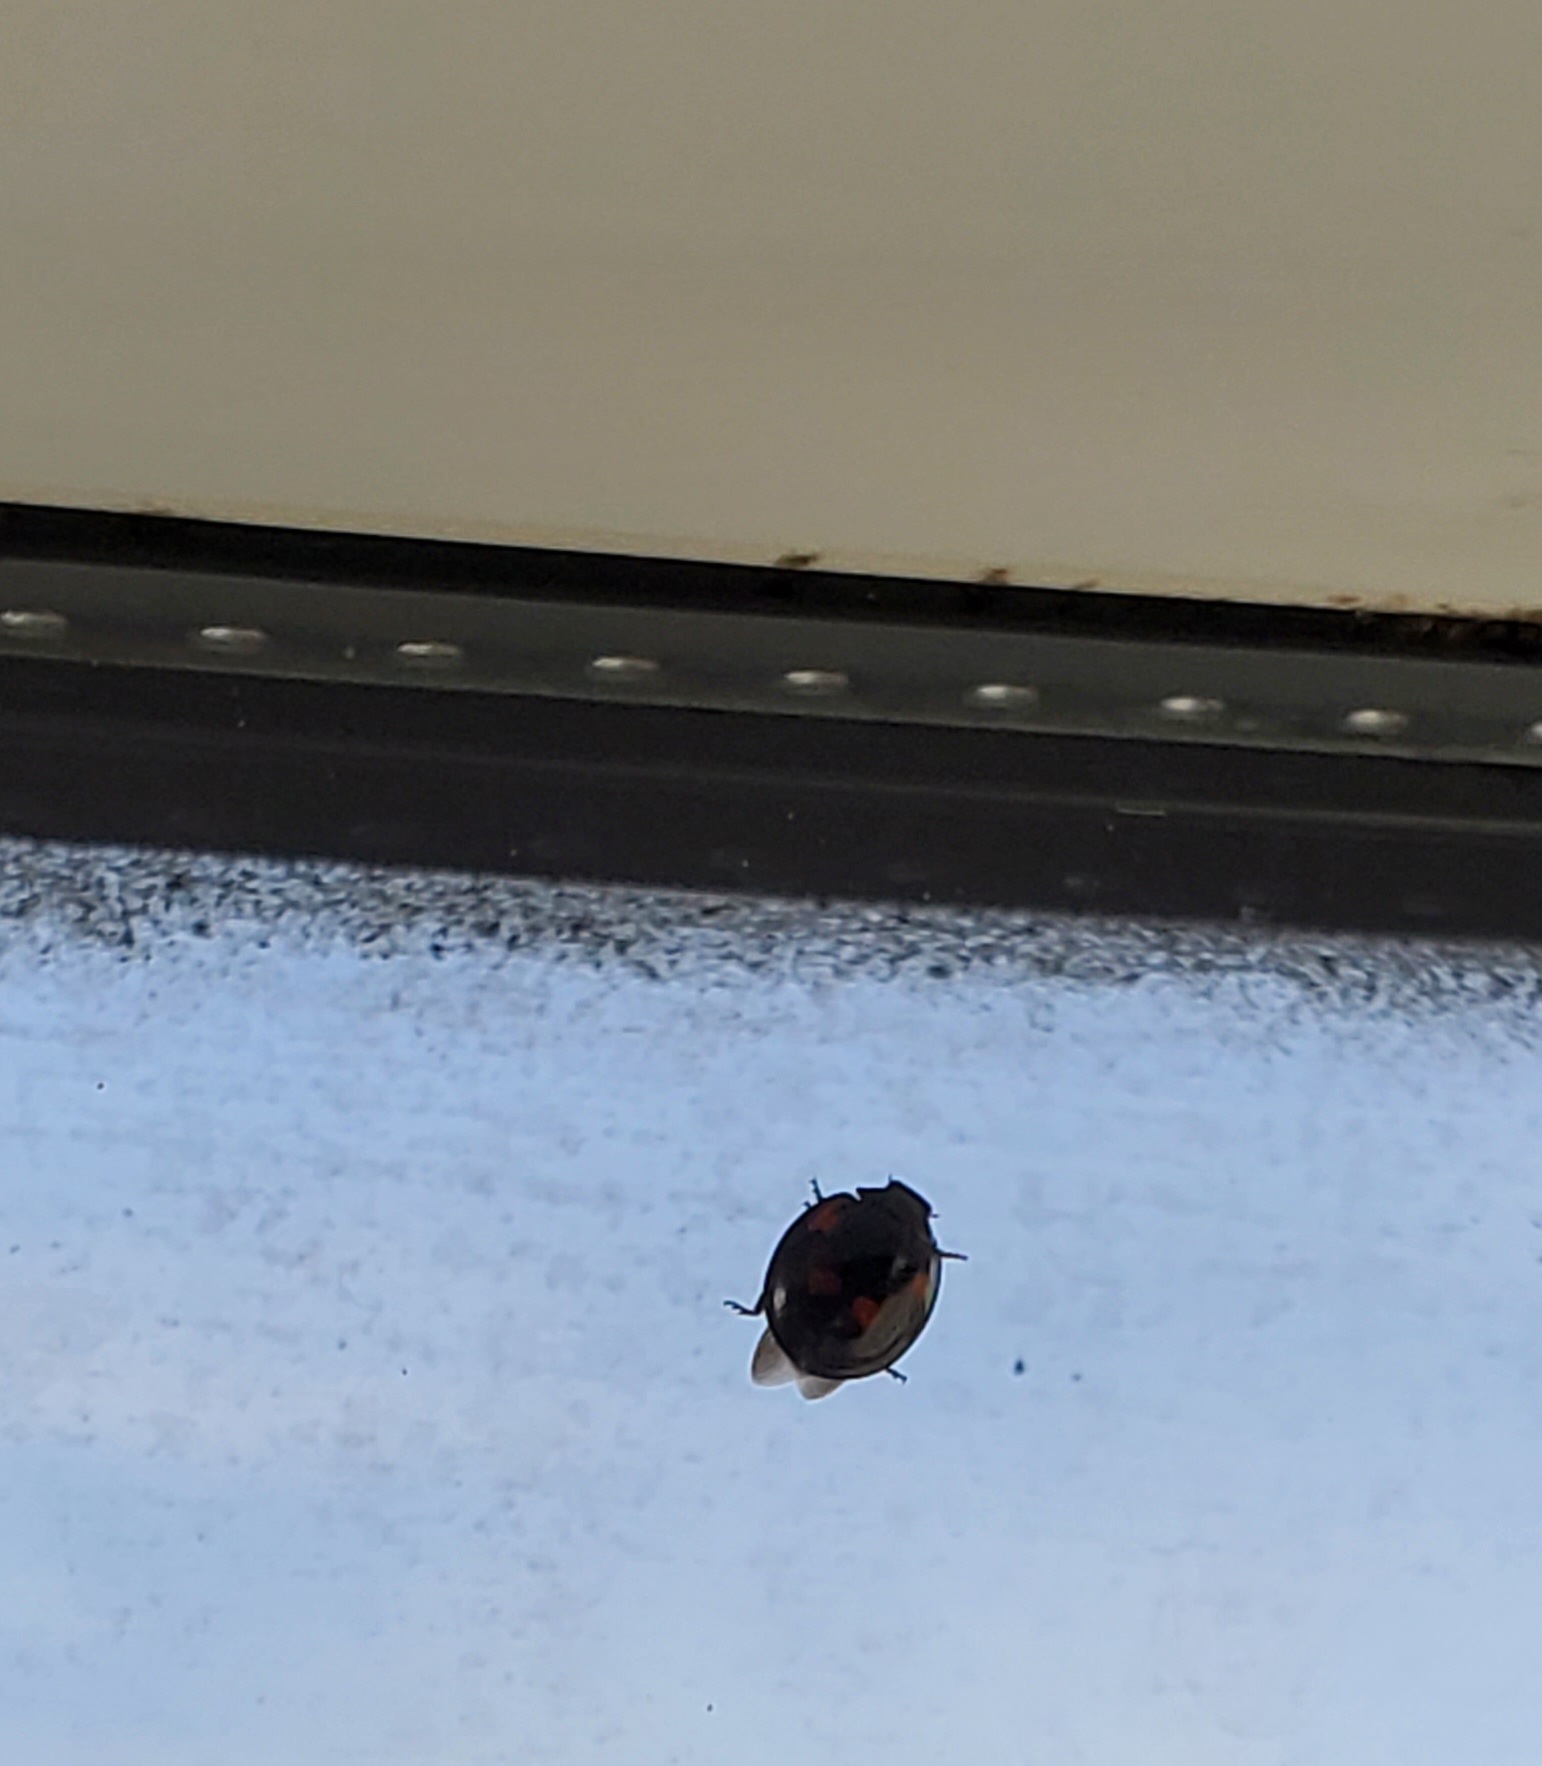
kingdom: Animalia
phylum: Arthropoda
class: Insecta
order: Coleoptera
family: Coccinellidae
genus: Brumus
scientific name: Brumus quadripustulatus
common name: Ladybird beetle
